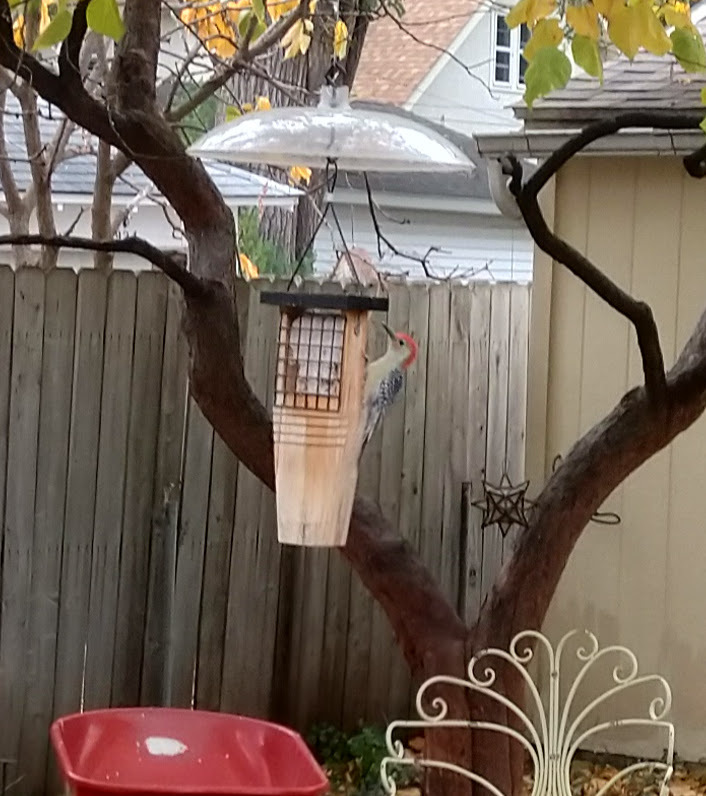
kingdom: Animalia
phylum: Chordata
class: Aves
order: Piciformes
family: Picidae
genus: Melanerpes
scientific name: Melanerpes carolinus
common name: Red-bellied woodpecker
